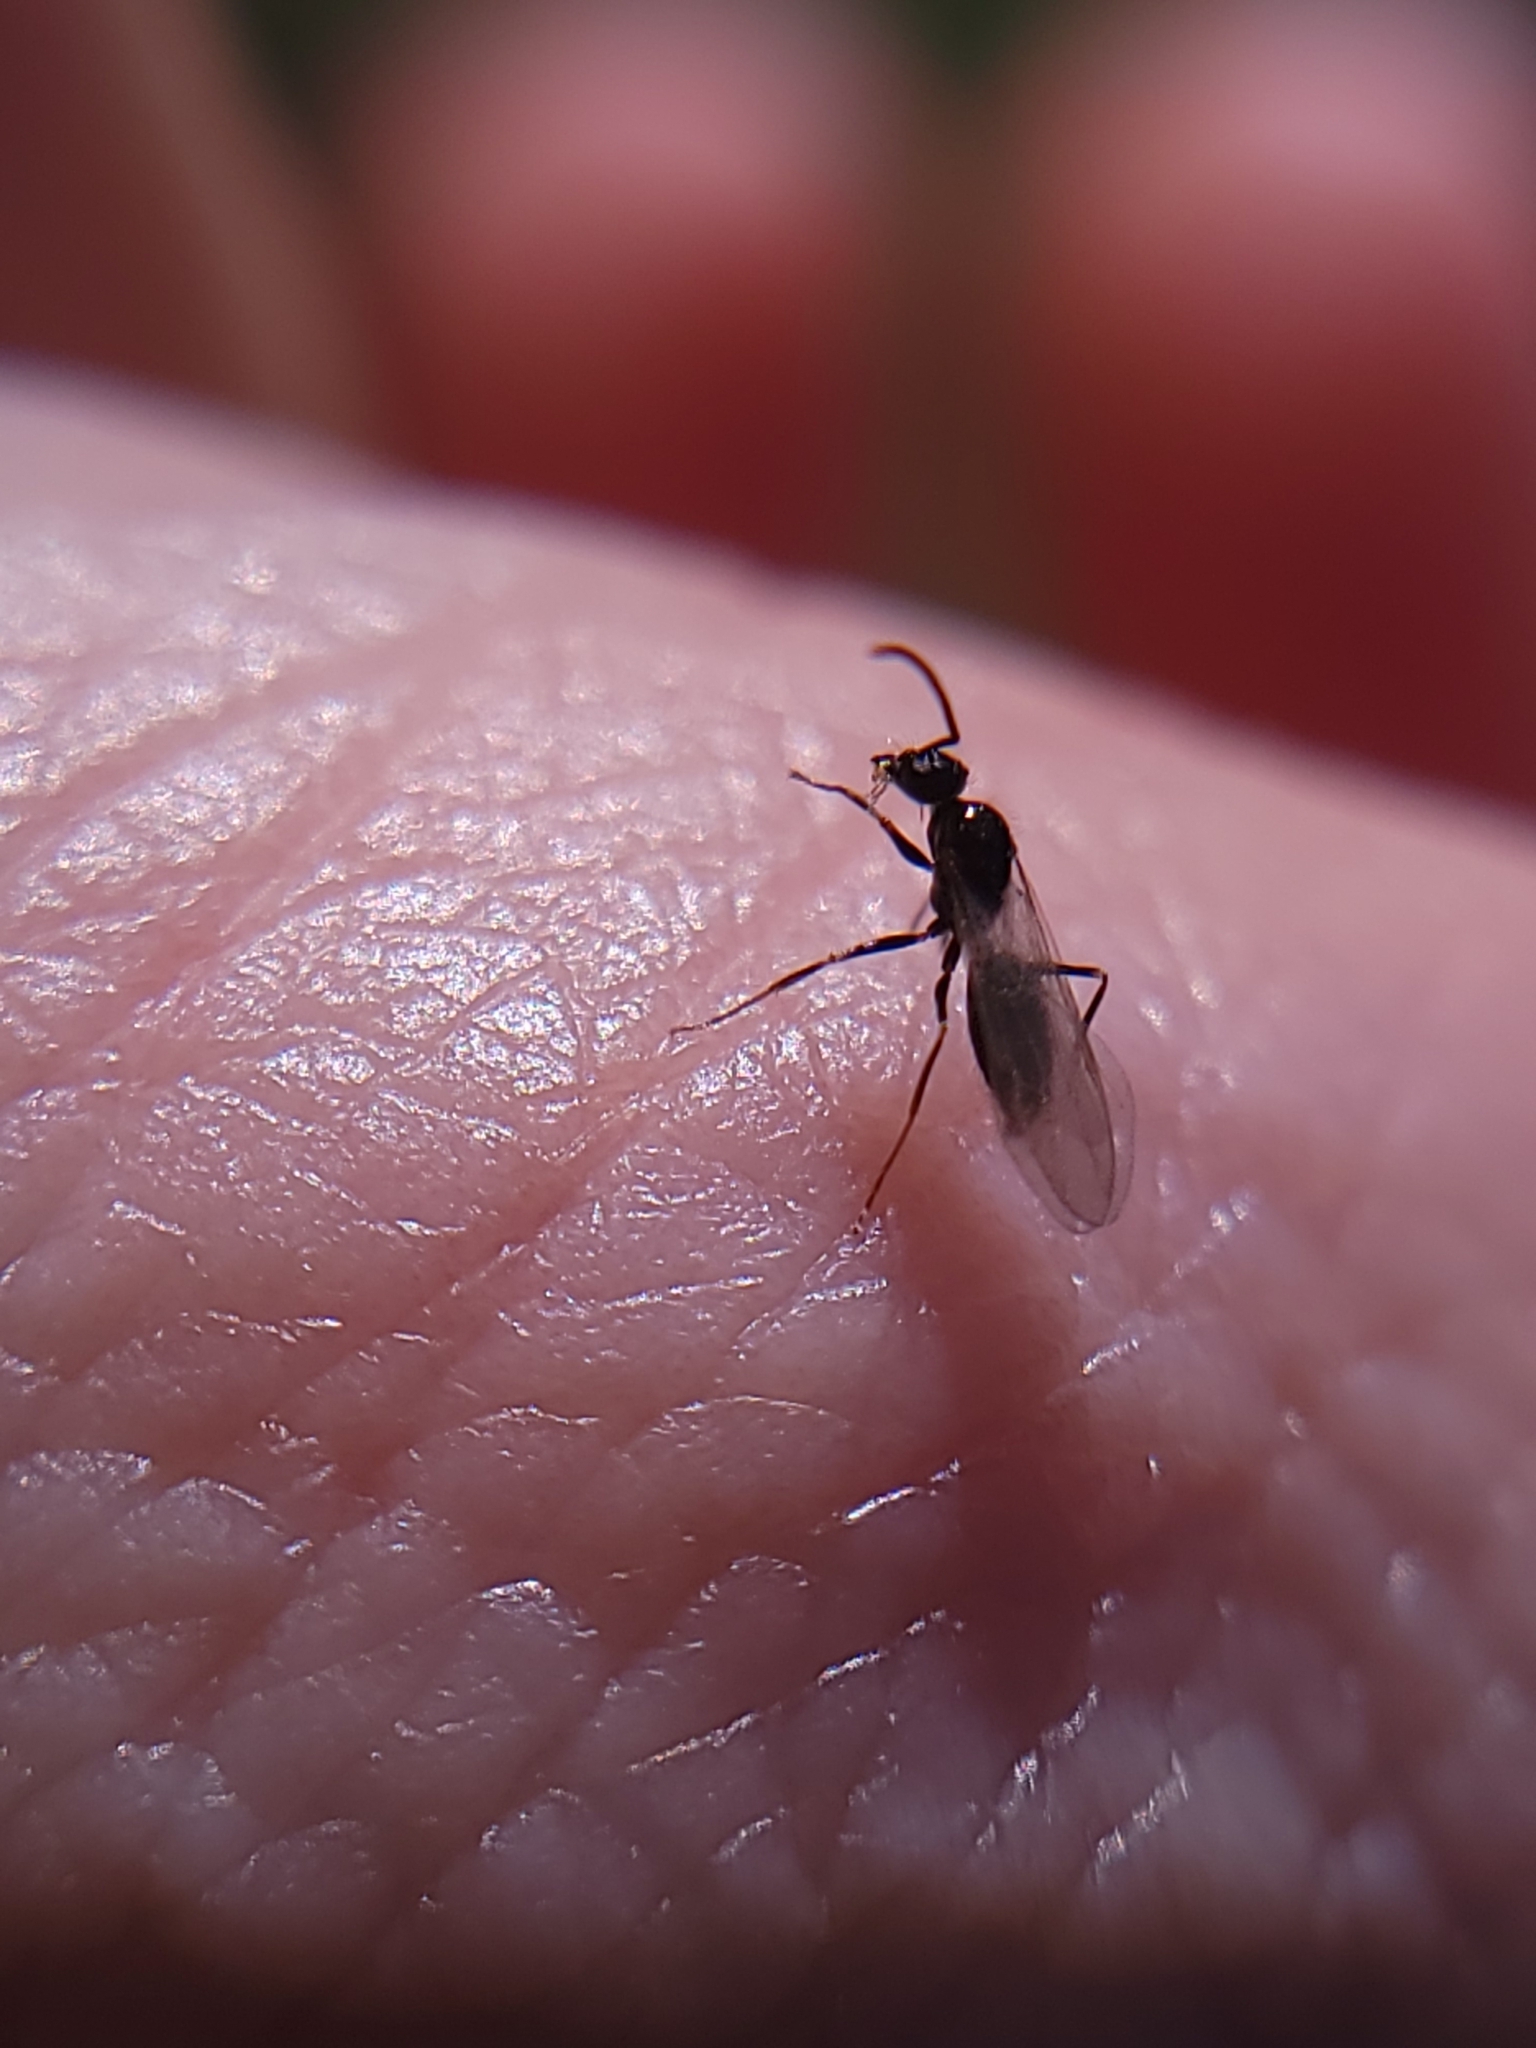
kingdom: Animalia
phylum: Arthropoda
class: Insecta
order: Hymenoptera
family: Formicidae
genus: Prenolepis
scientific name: Prenolepis imparis
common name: Small honey ant
